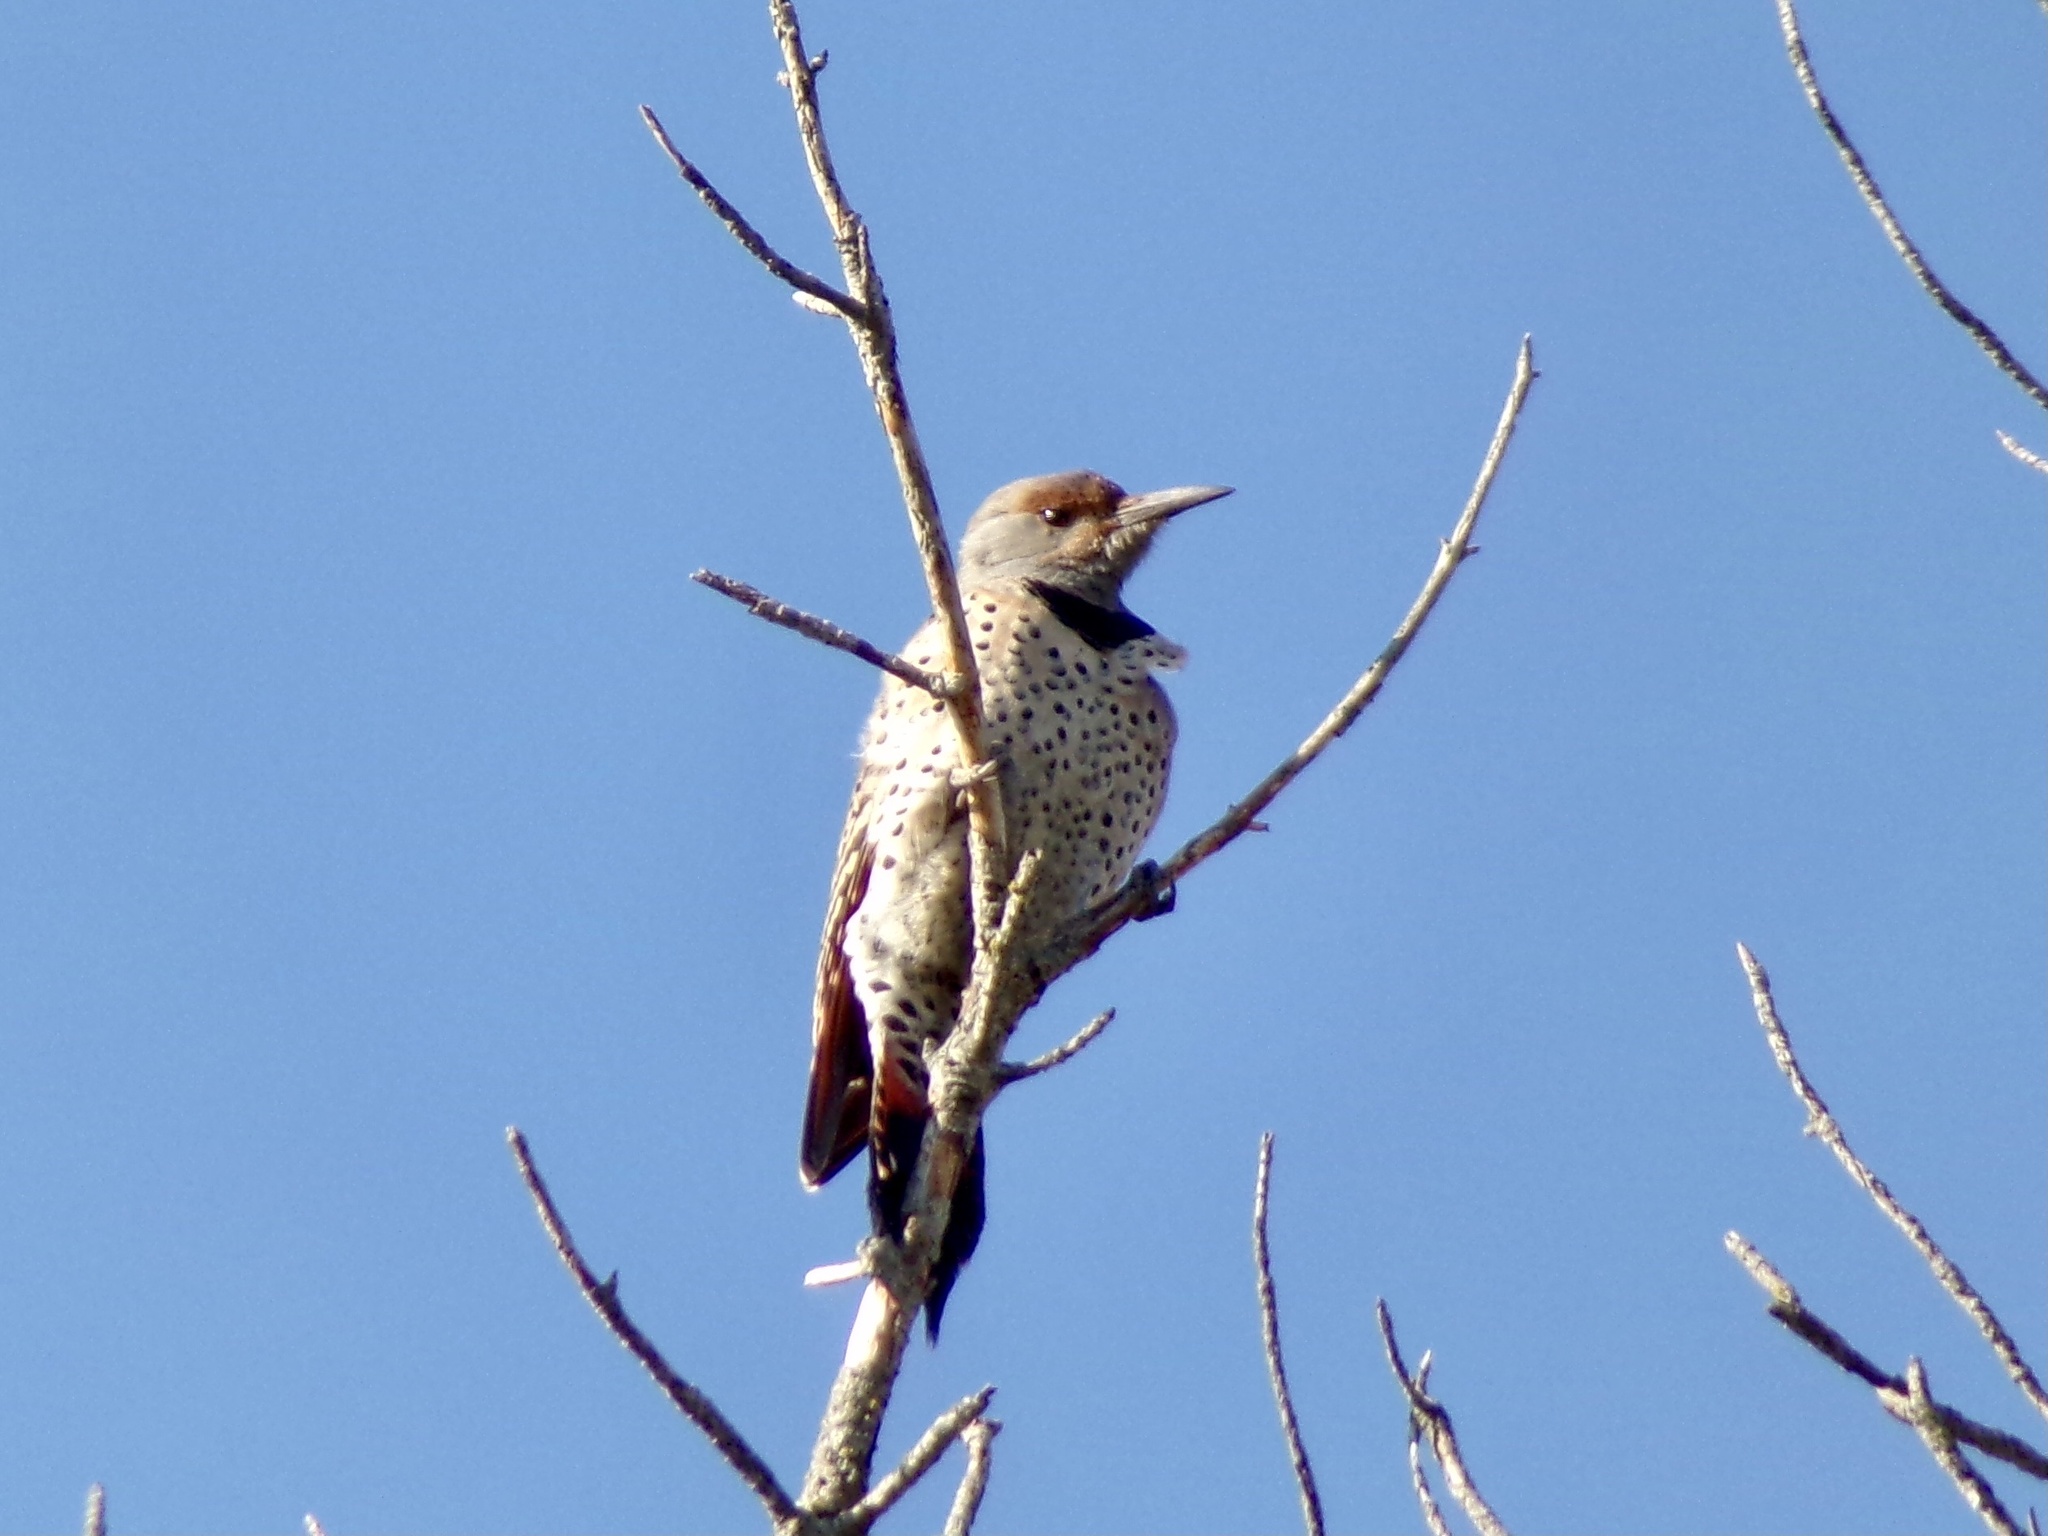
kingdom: Animalia
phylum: Chordata
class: Aves
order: Piciformes
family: Picidae
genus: Colaptes
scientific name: Colaptes auratus
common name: Northern flicker
